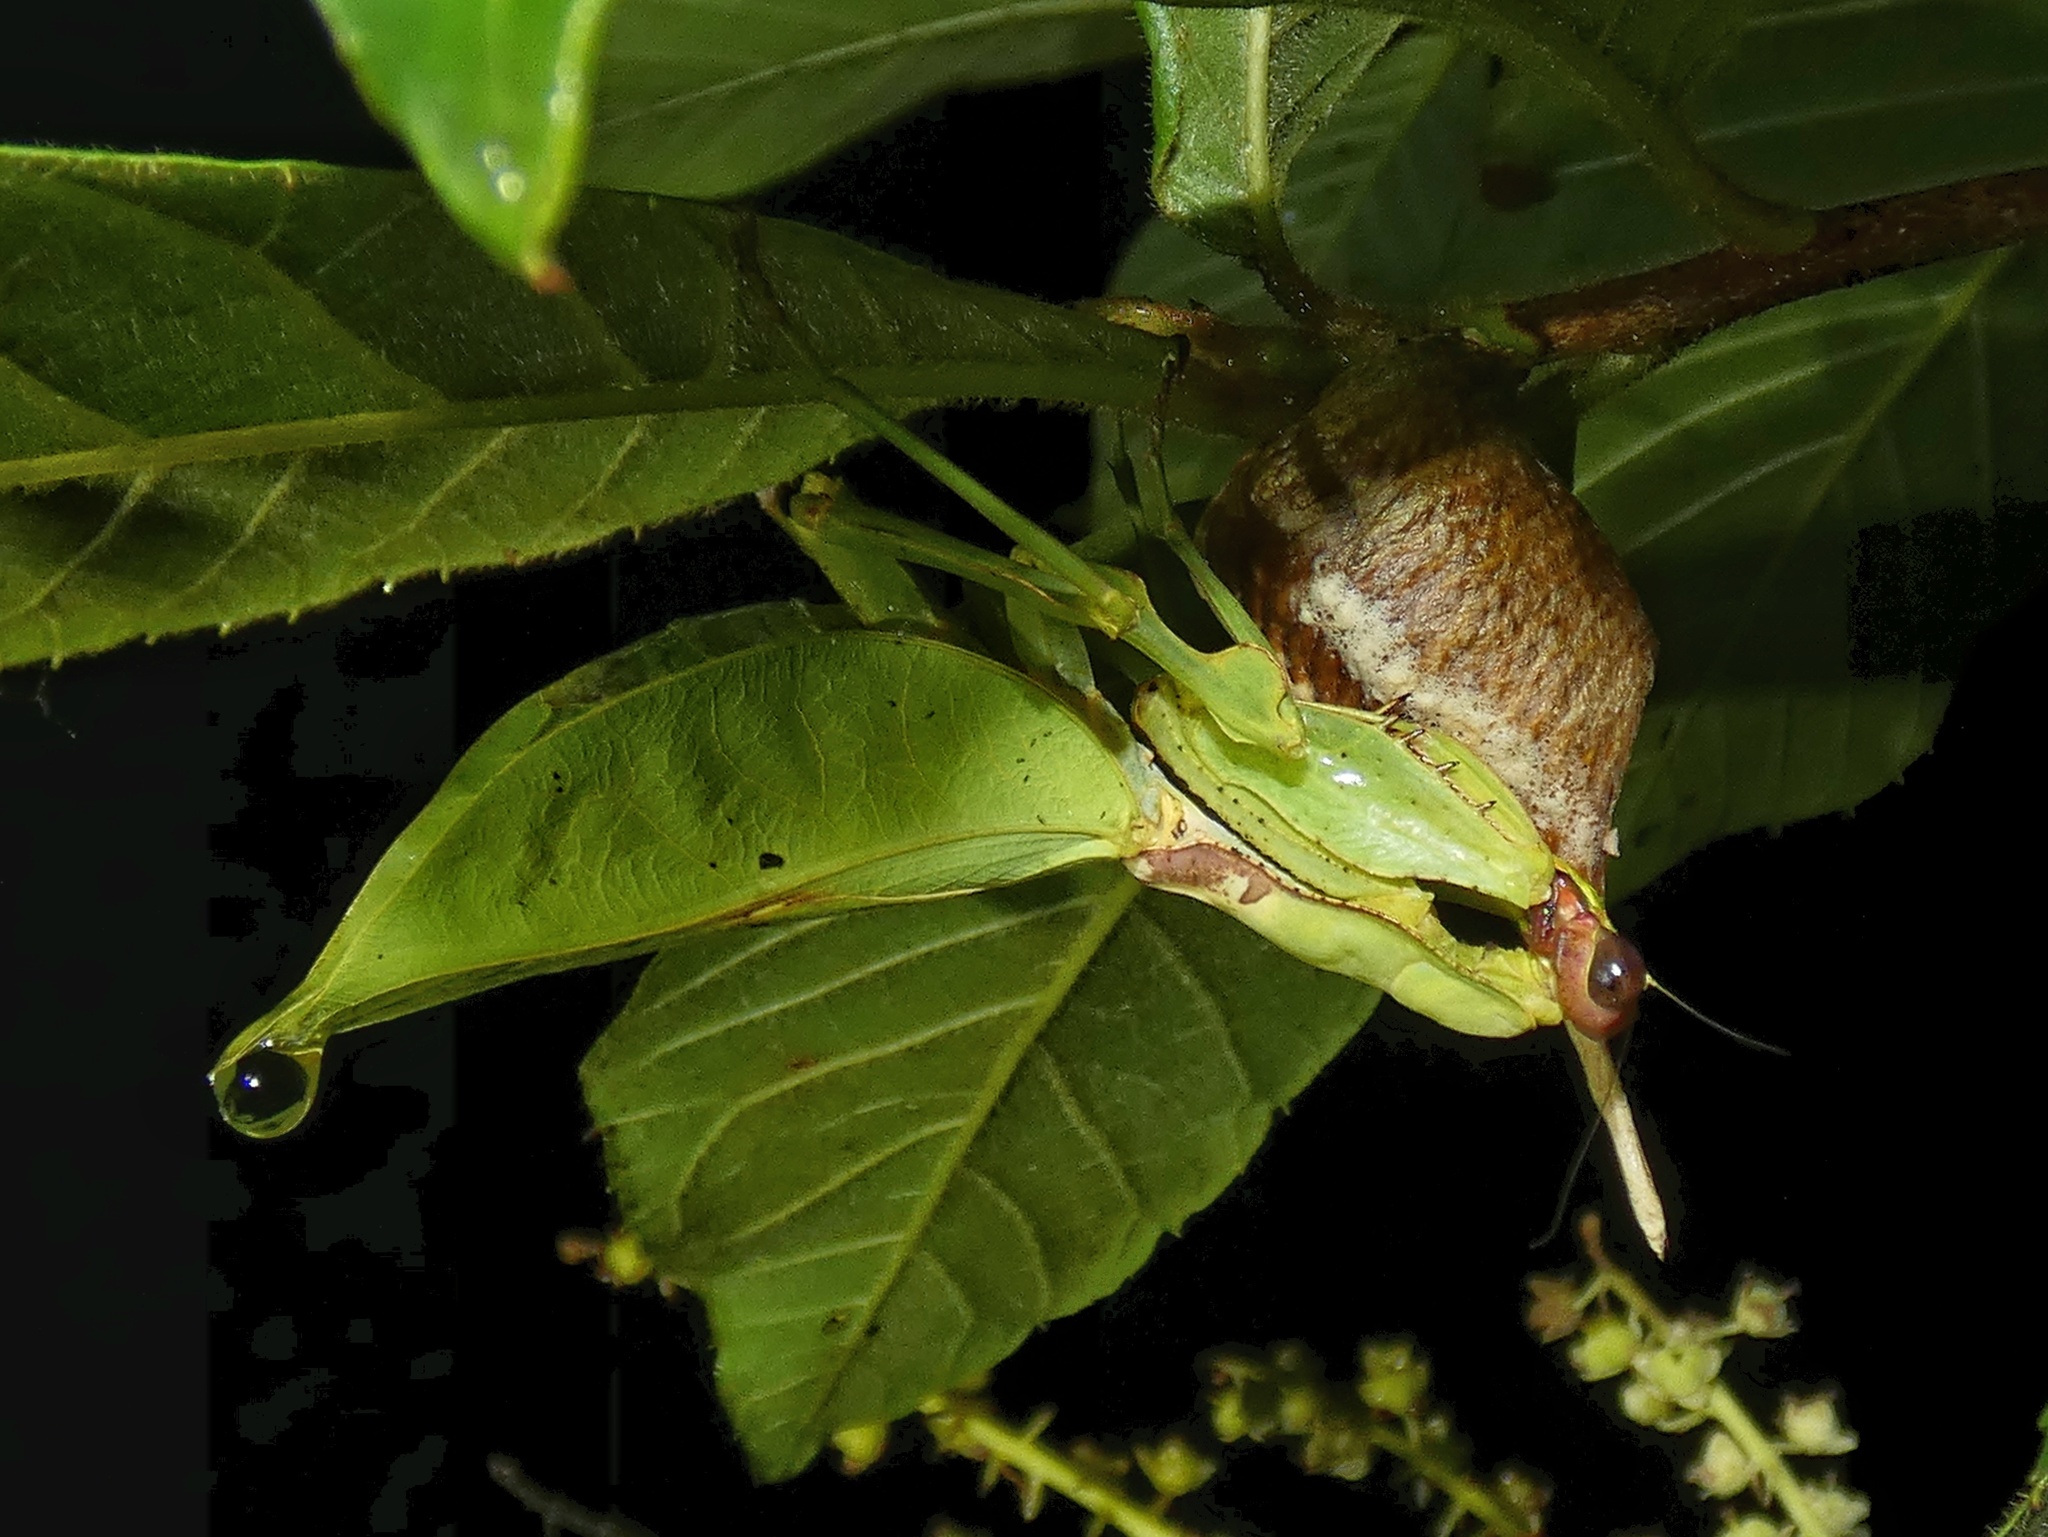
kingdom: Animalia
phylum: Arthropoda
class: Insecta
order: Mantodea
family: Mantidae
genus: Antemna
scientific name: Antemna rapax
